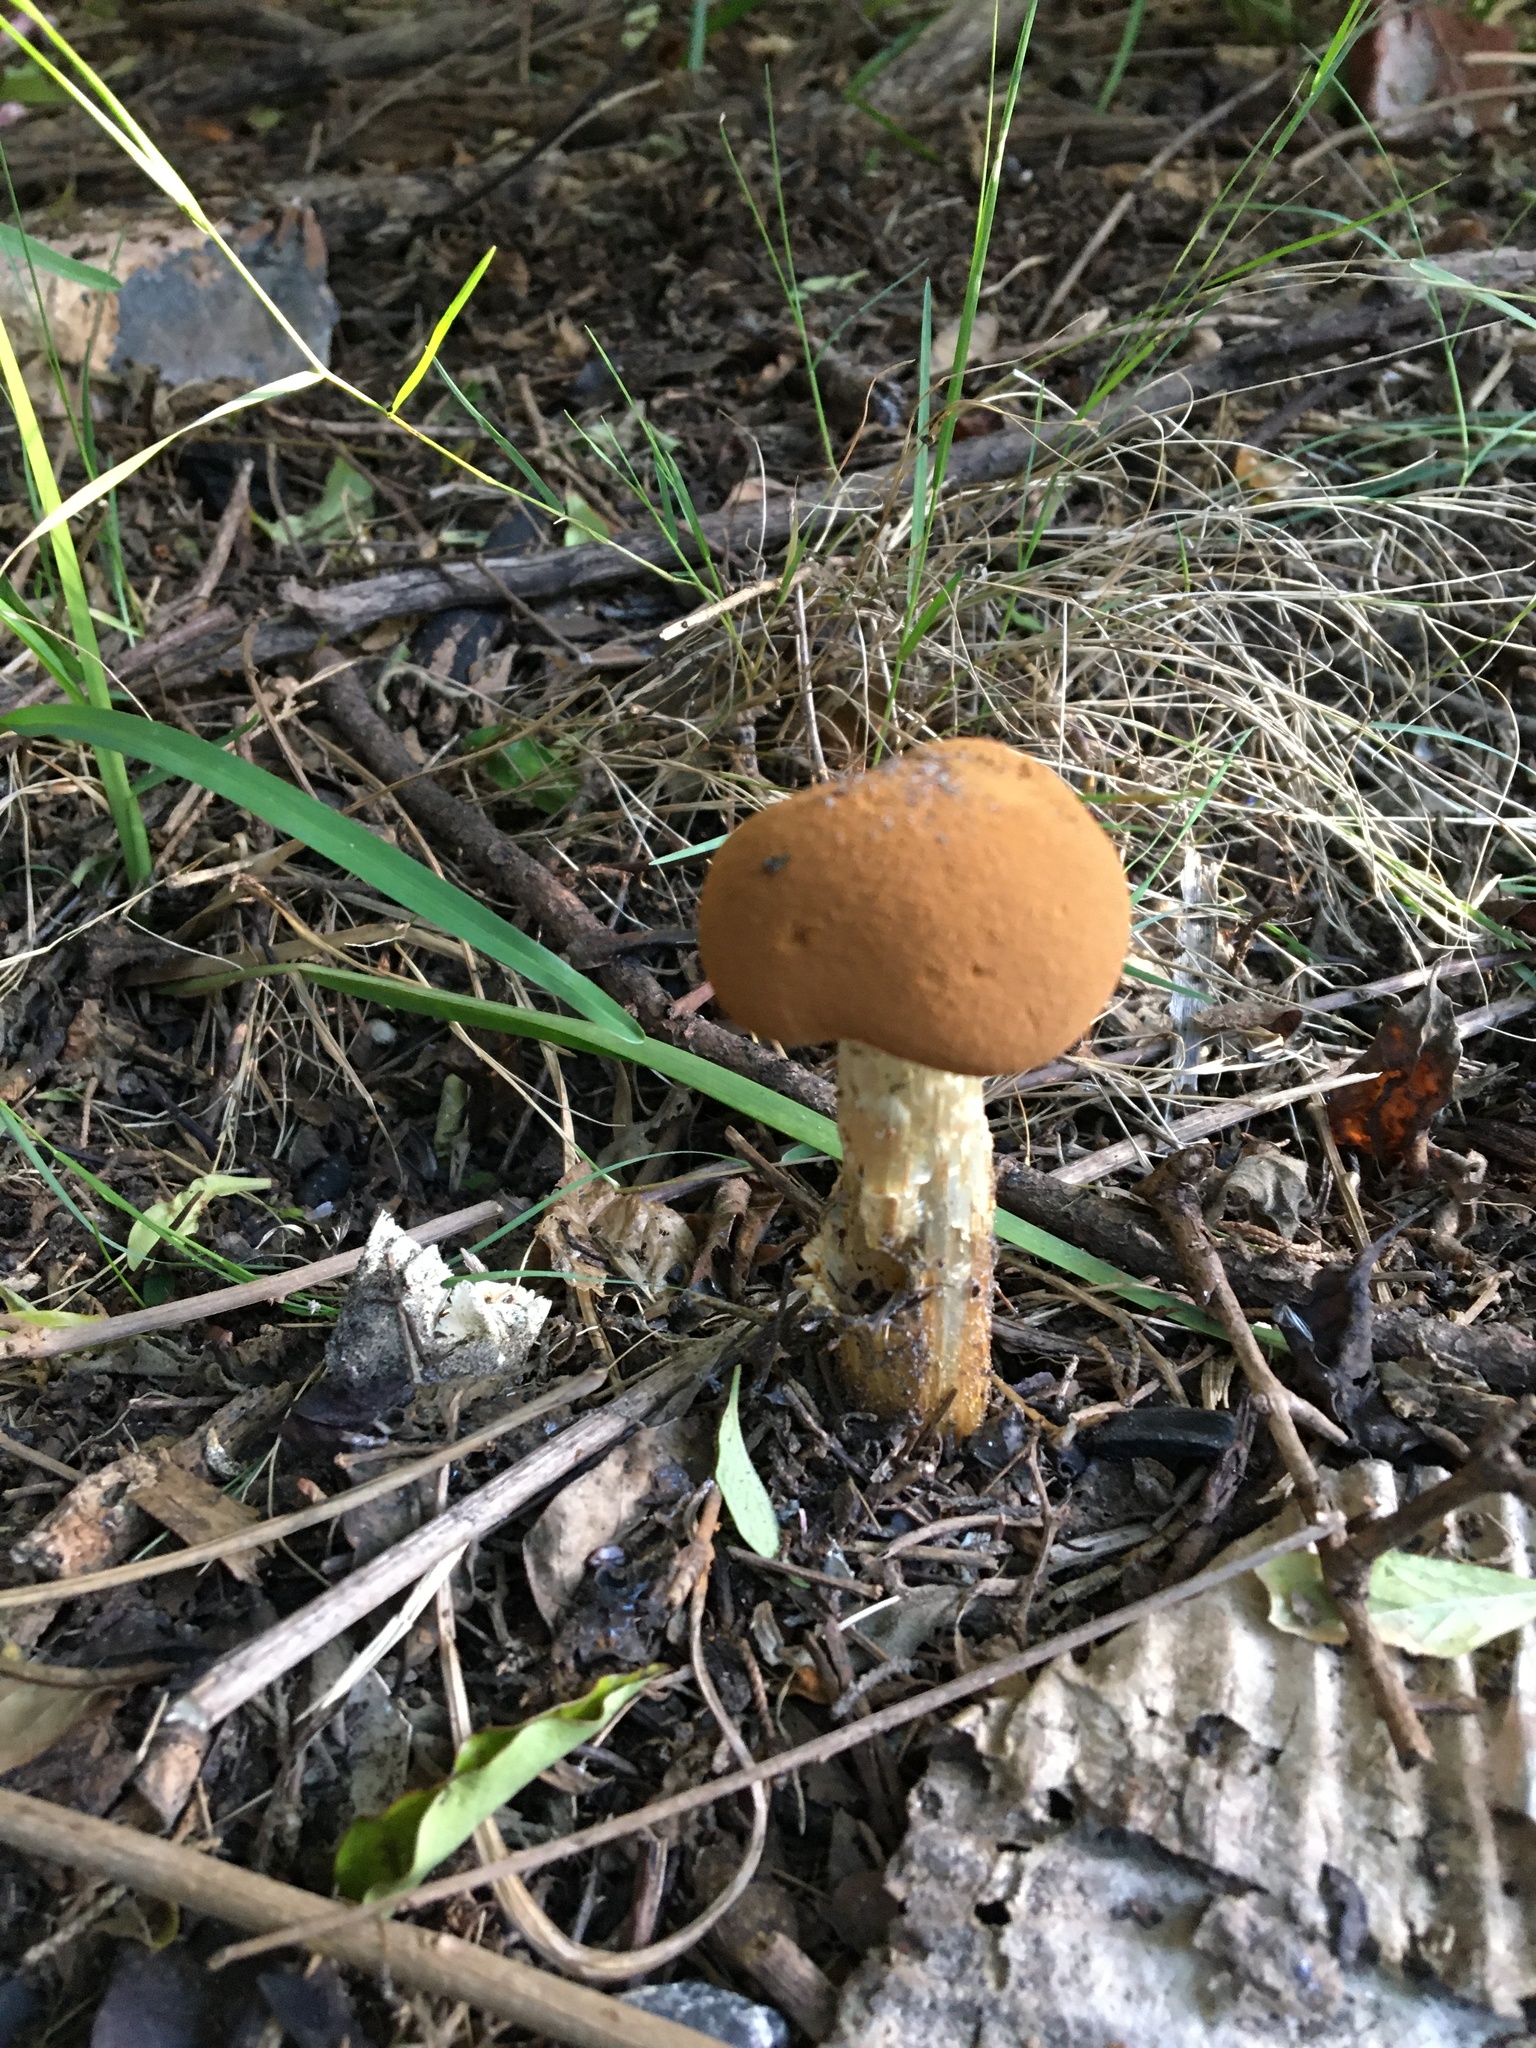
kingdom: Fungi
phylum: Basidiomycota
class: Agaricomycetes
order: Agaricales
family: Agaricaceae
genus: Battarrea
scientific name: Battarrea phalloides
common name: Sandy stiltball
